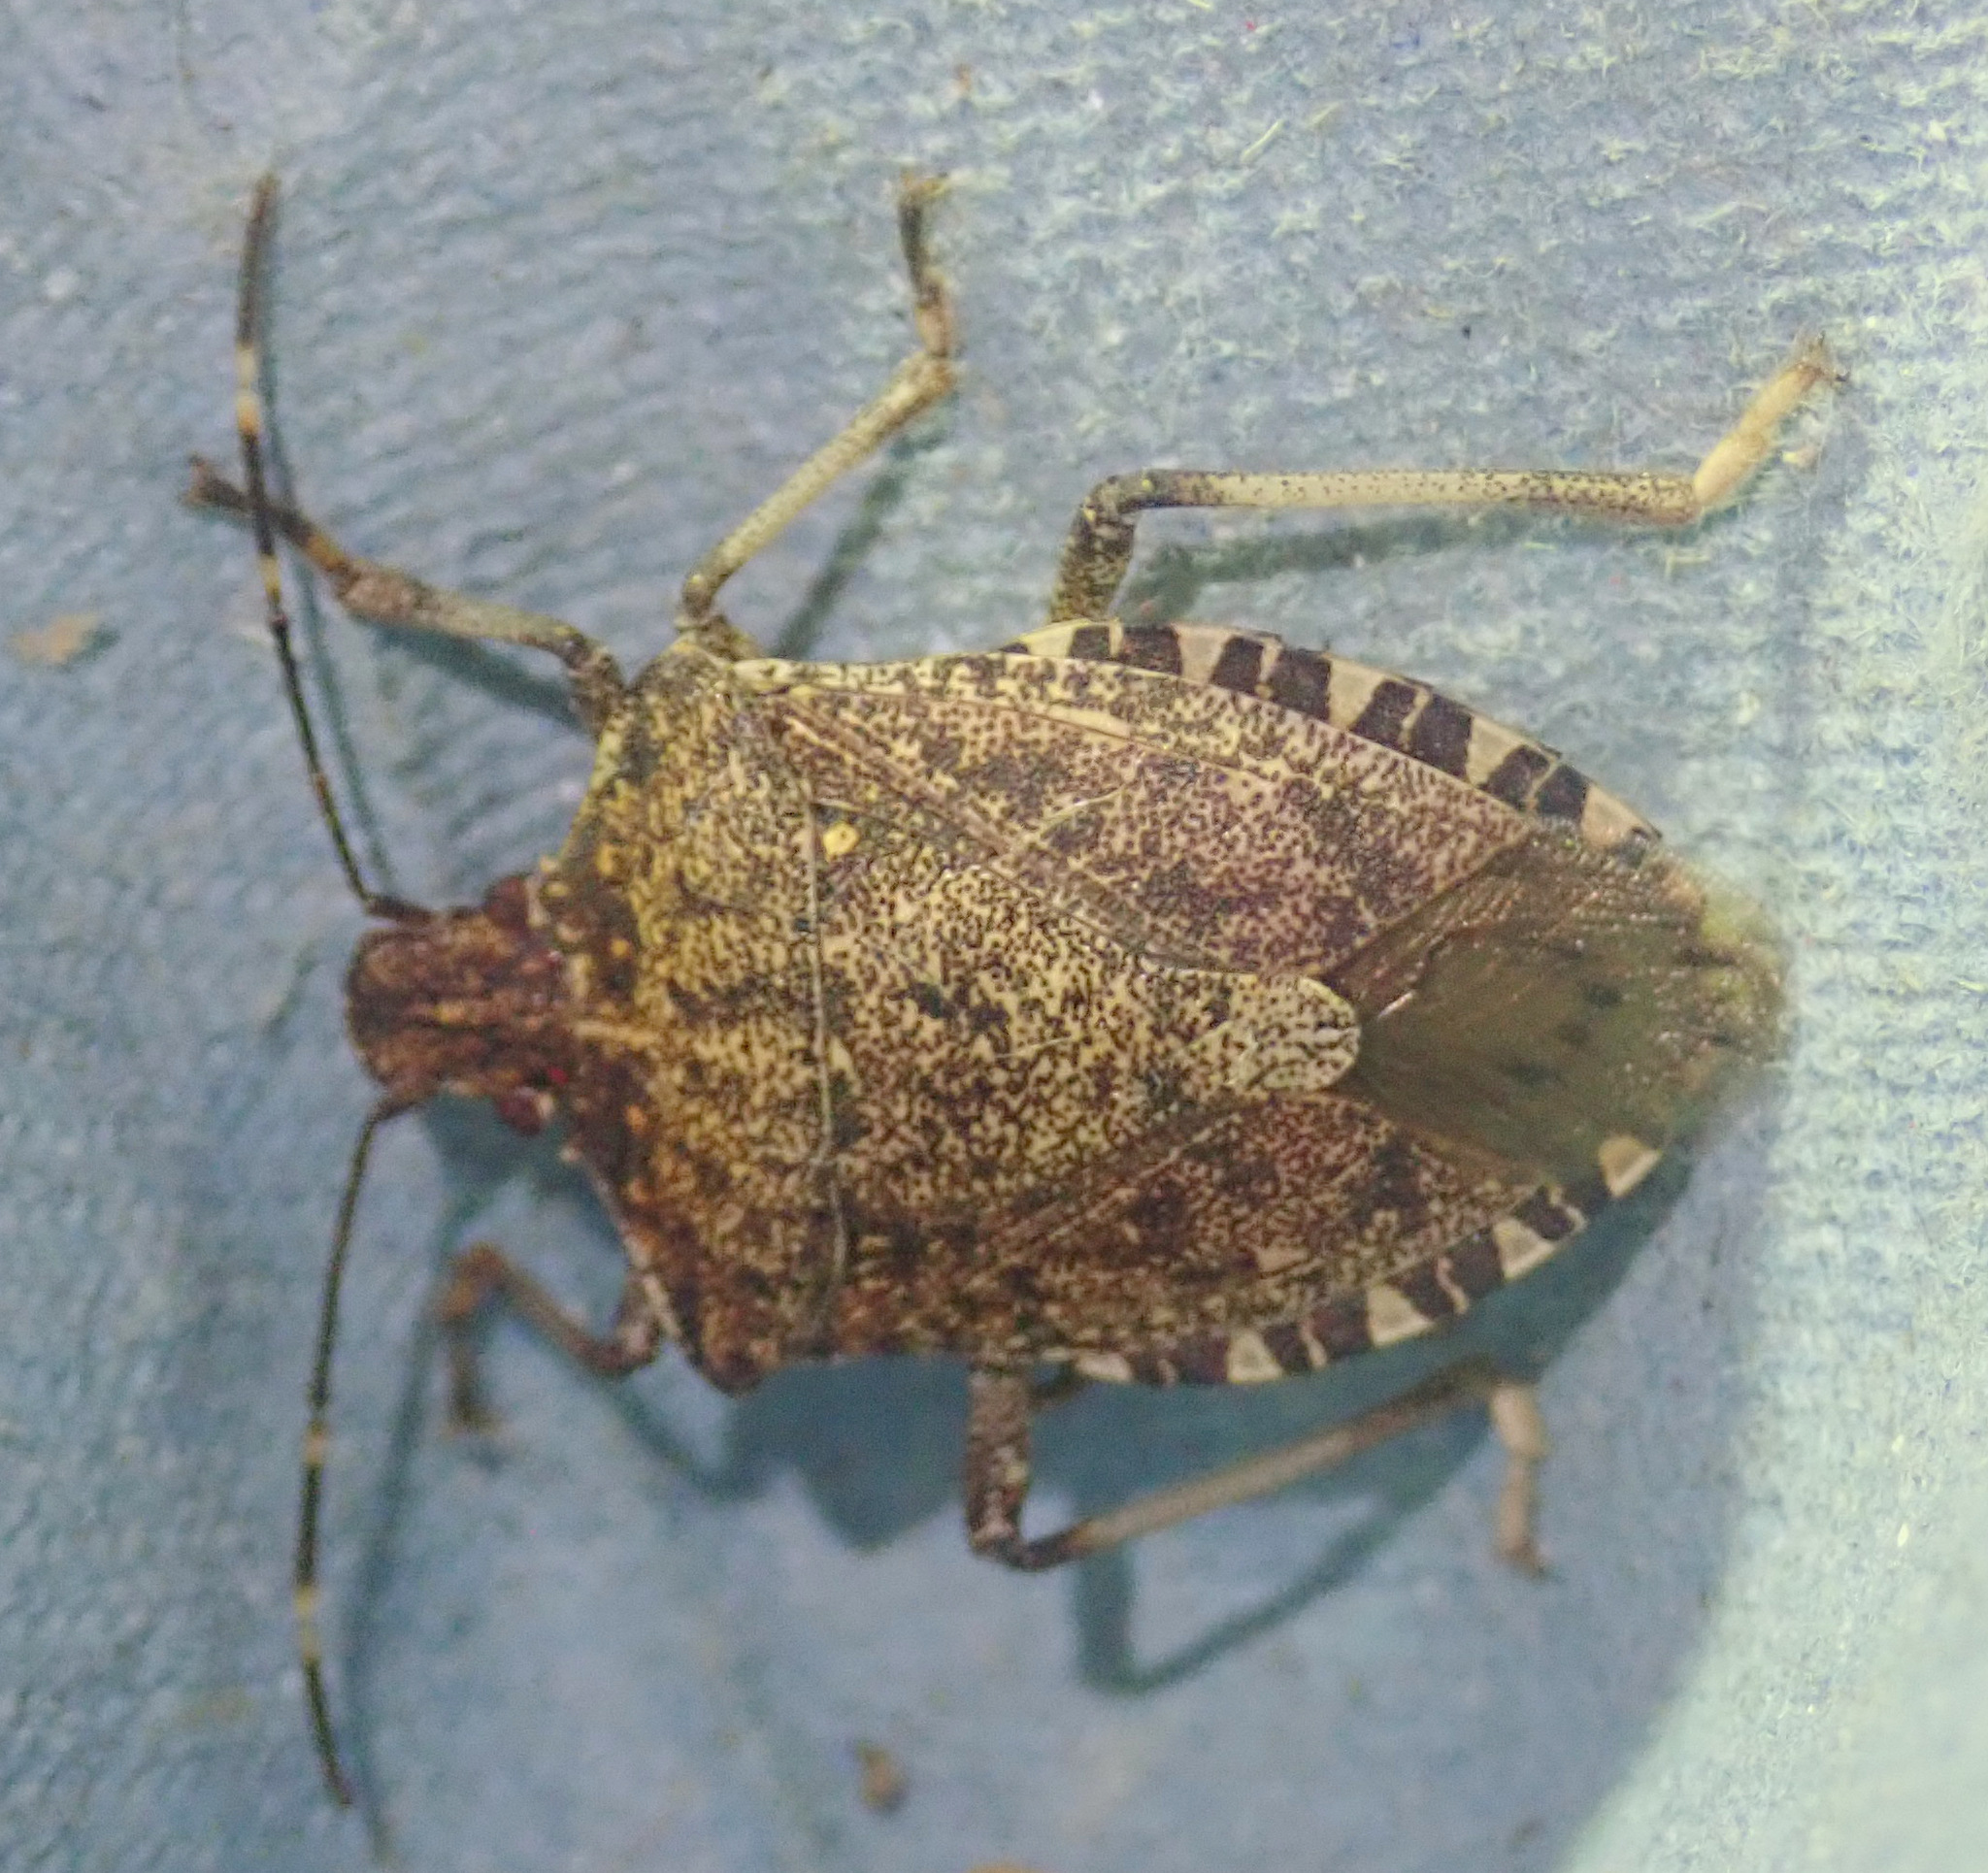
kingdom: Animalia
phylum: Arthropoda
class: Insecta
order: Hemiptera
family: Pentatomidae
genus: Halyomorpha
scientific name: Halyomorpha halys
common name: Brown marmorated stink bug
